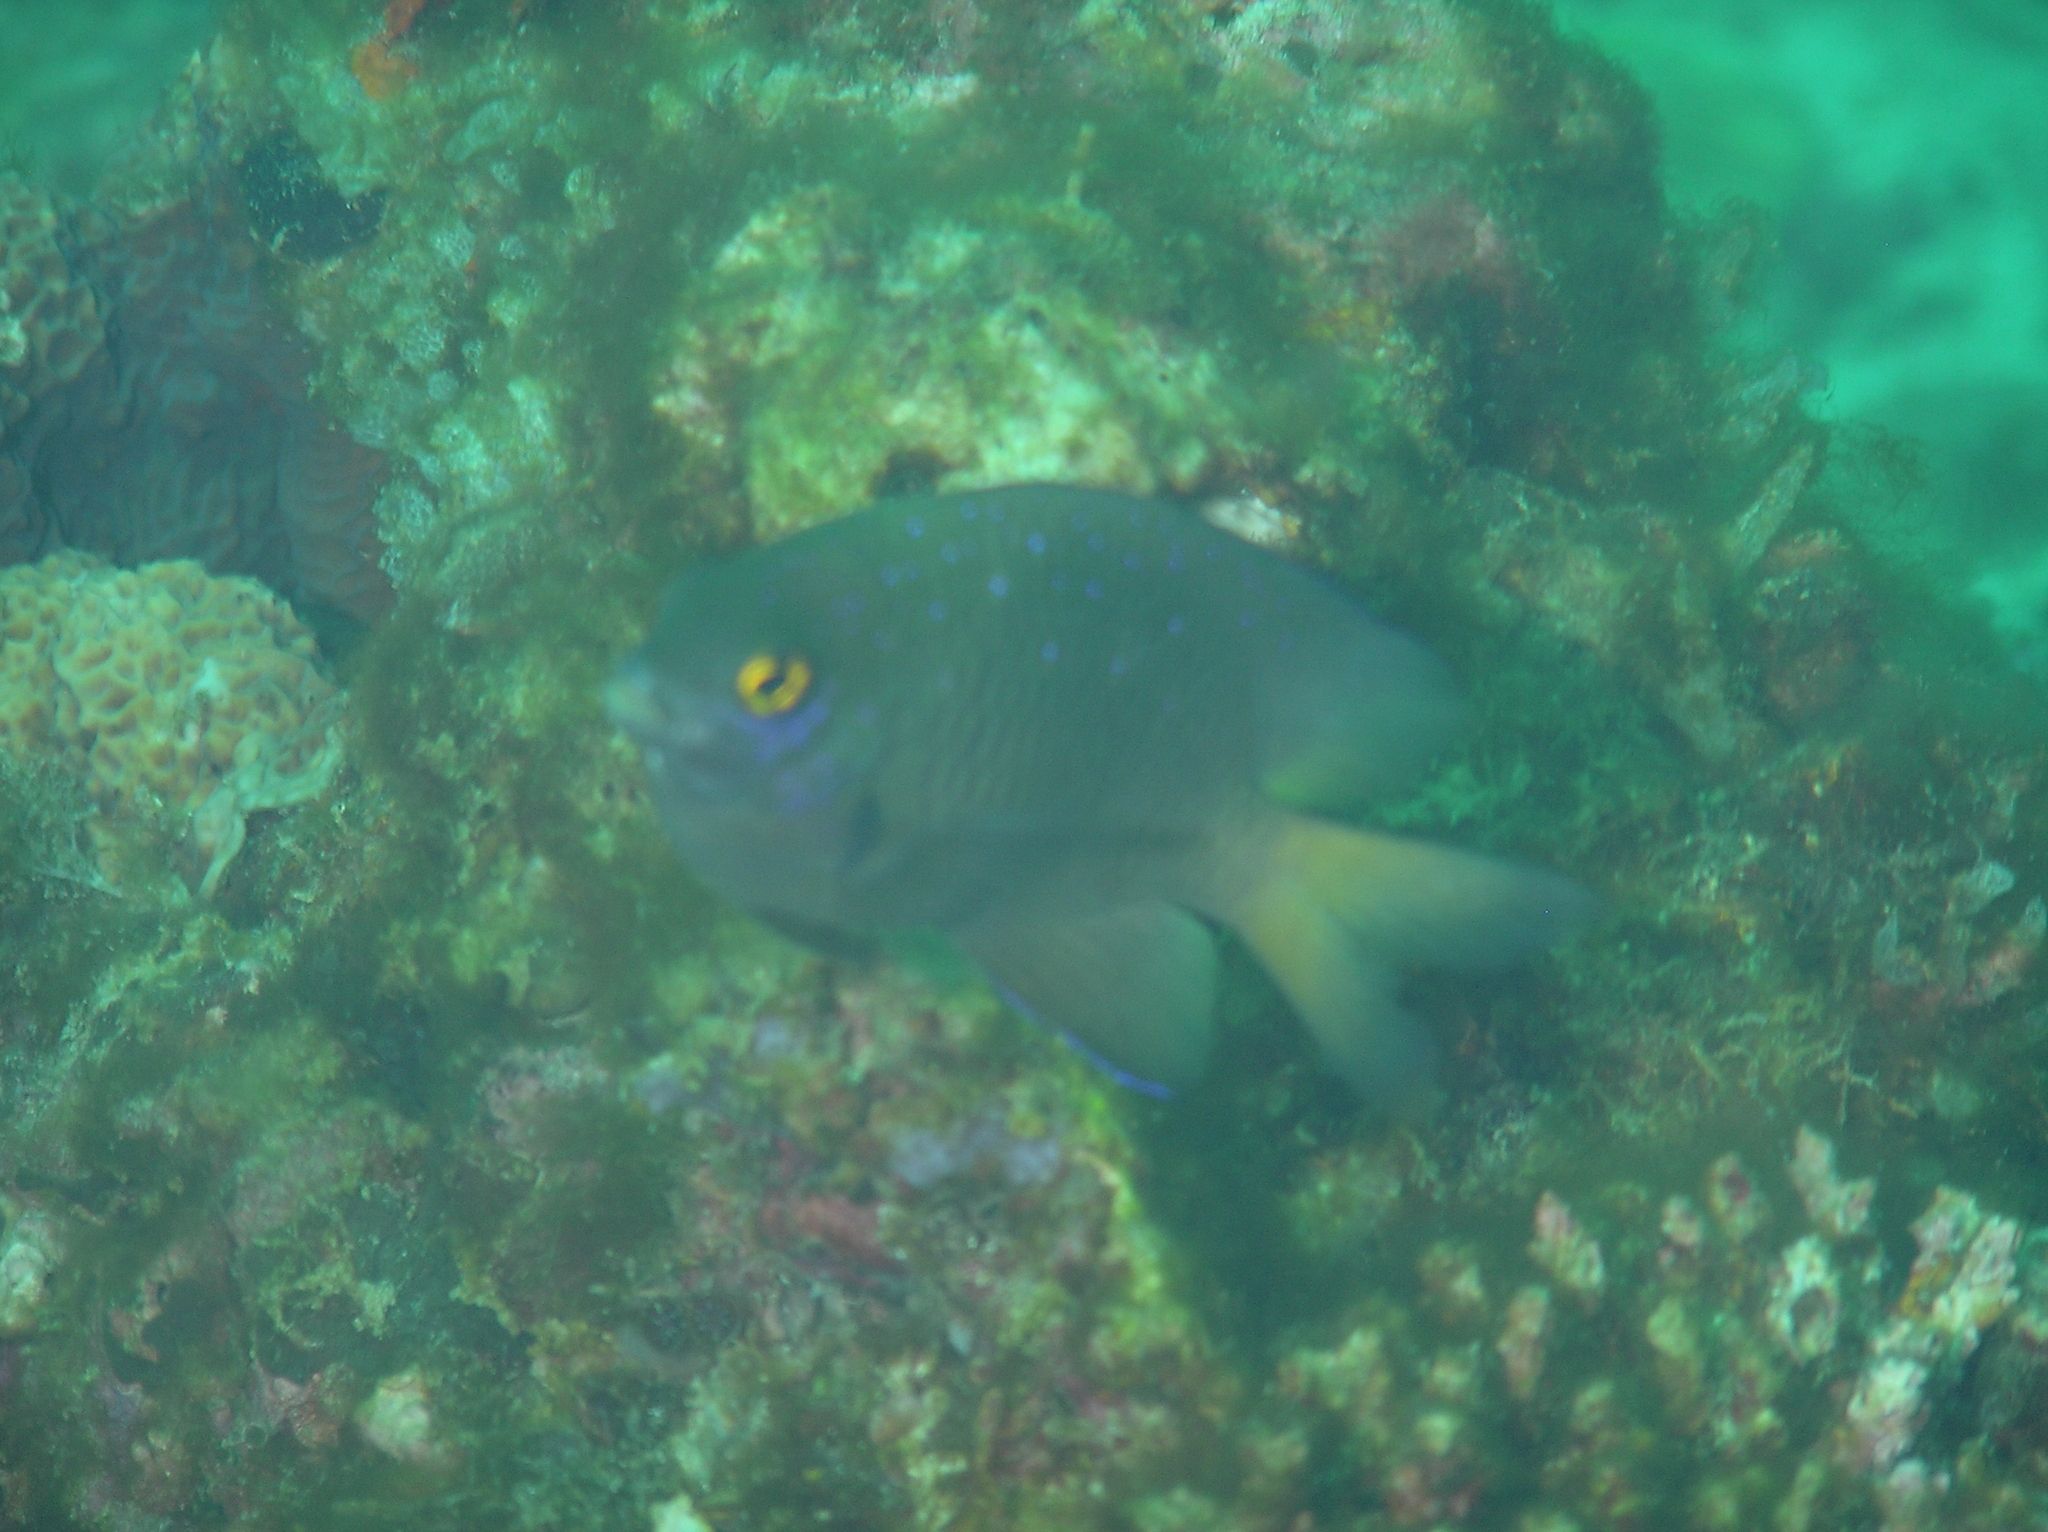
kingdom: Animalia
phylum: Chordata
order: Perciformes
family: Pomacentridae
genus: Plectroglyphidodon
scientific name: Plectroglyphidodon lacrymatus
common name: Jewel damsel
